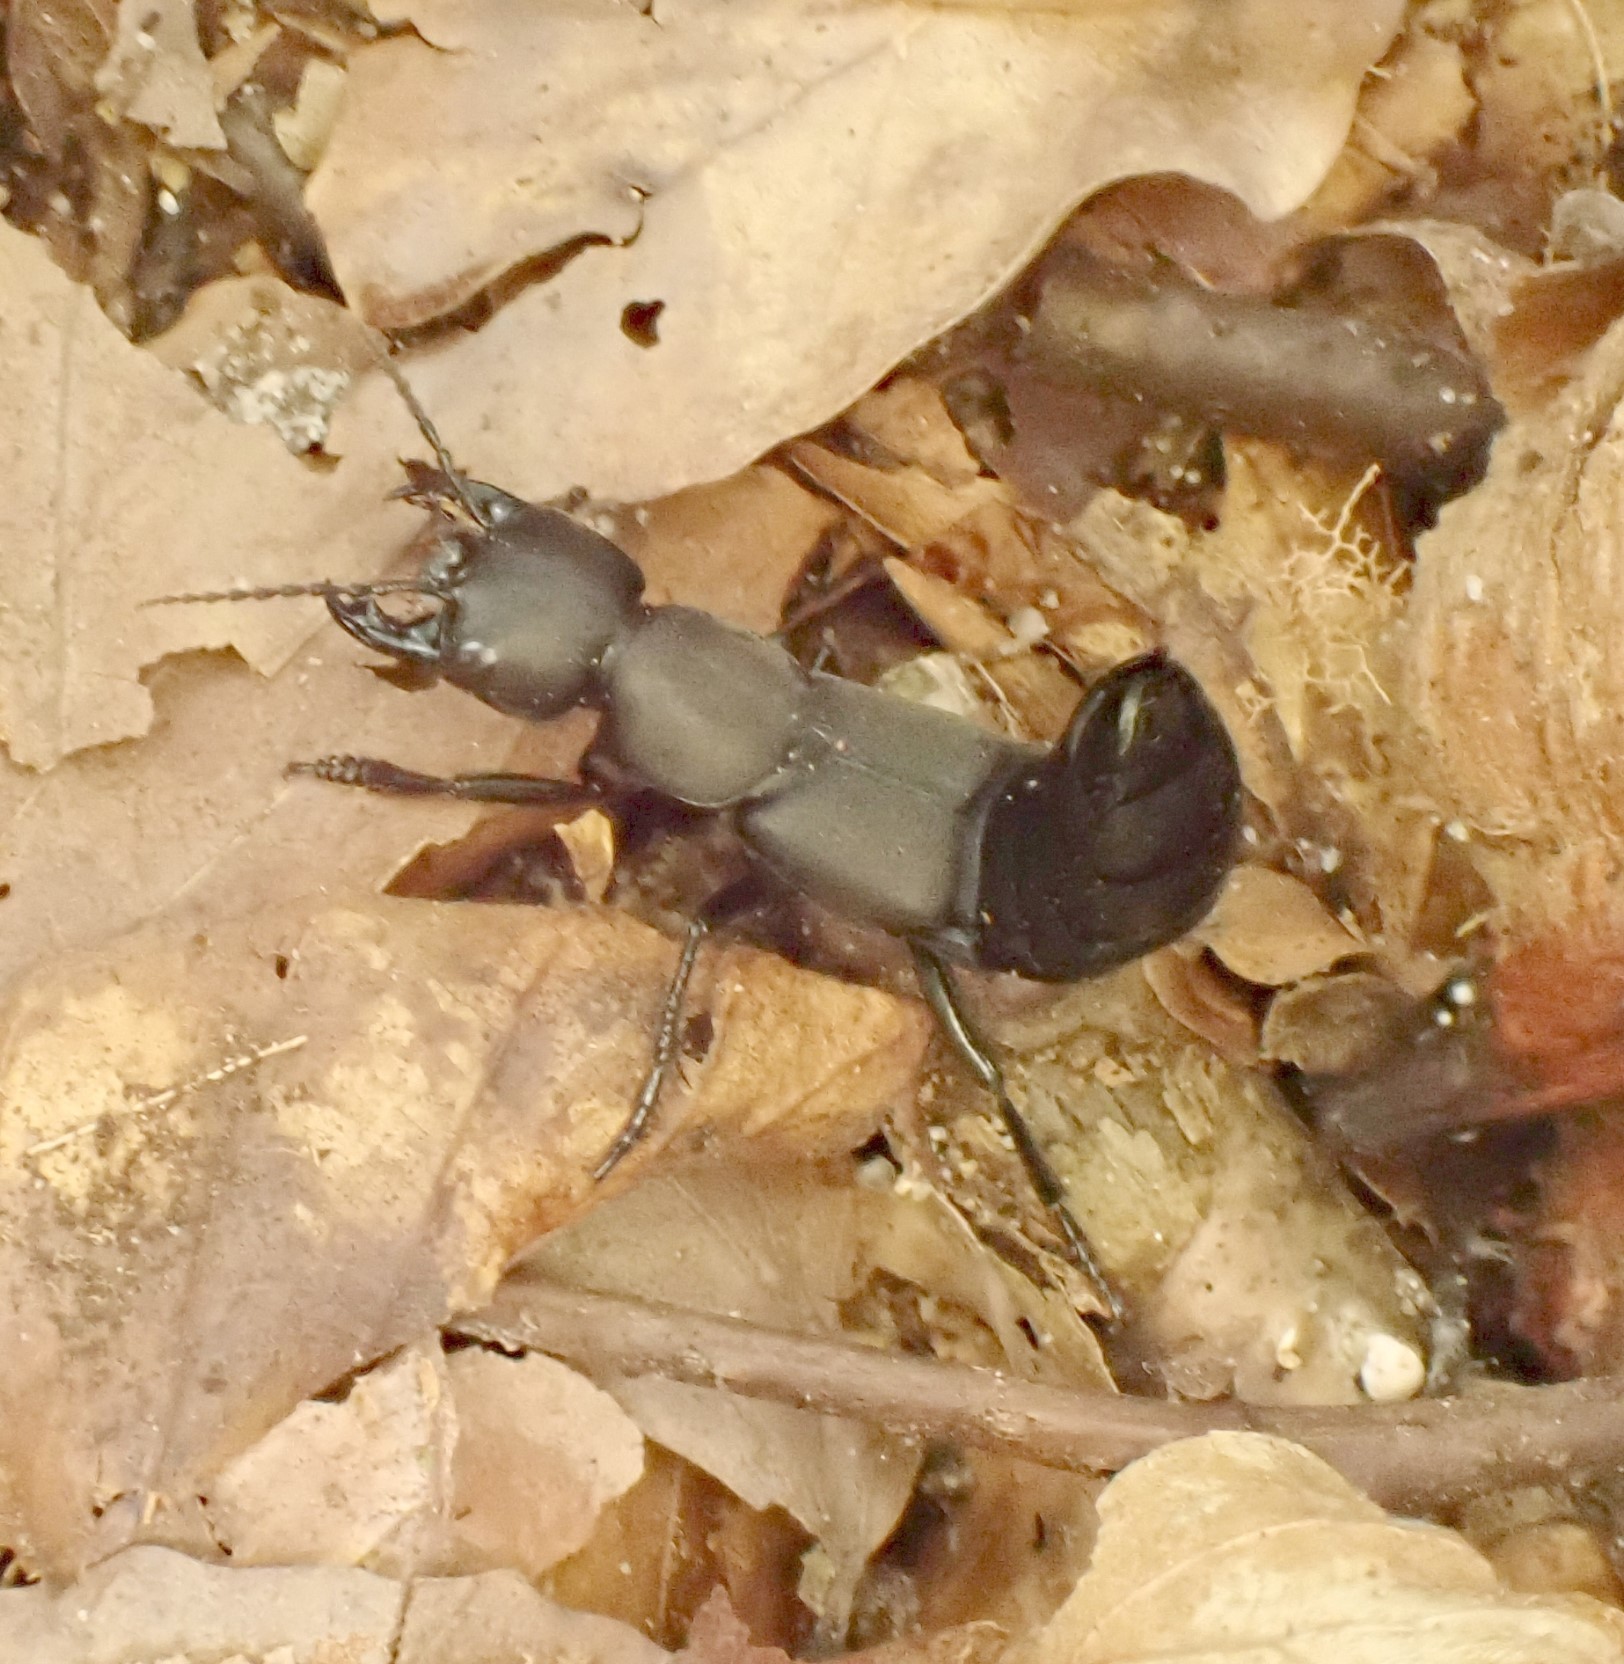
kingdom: Animalia
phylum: Arthropoda
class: Insecta
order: Coleoptera
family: Staphylinidae
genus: Ocypus
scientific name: Ocypus olens
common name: Devil's coach-horse
